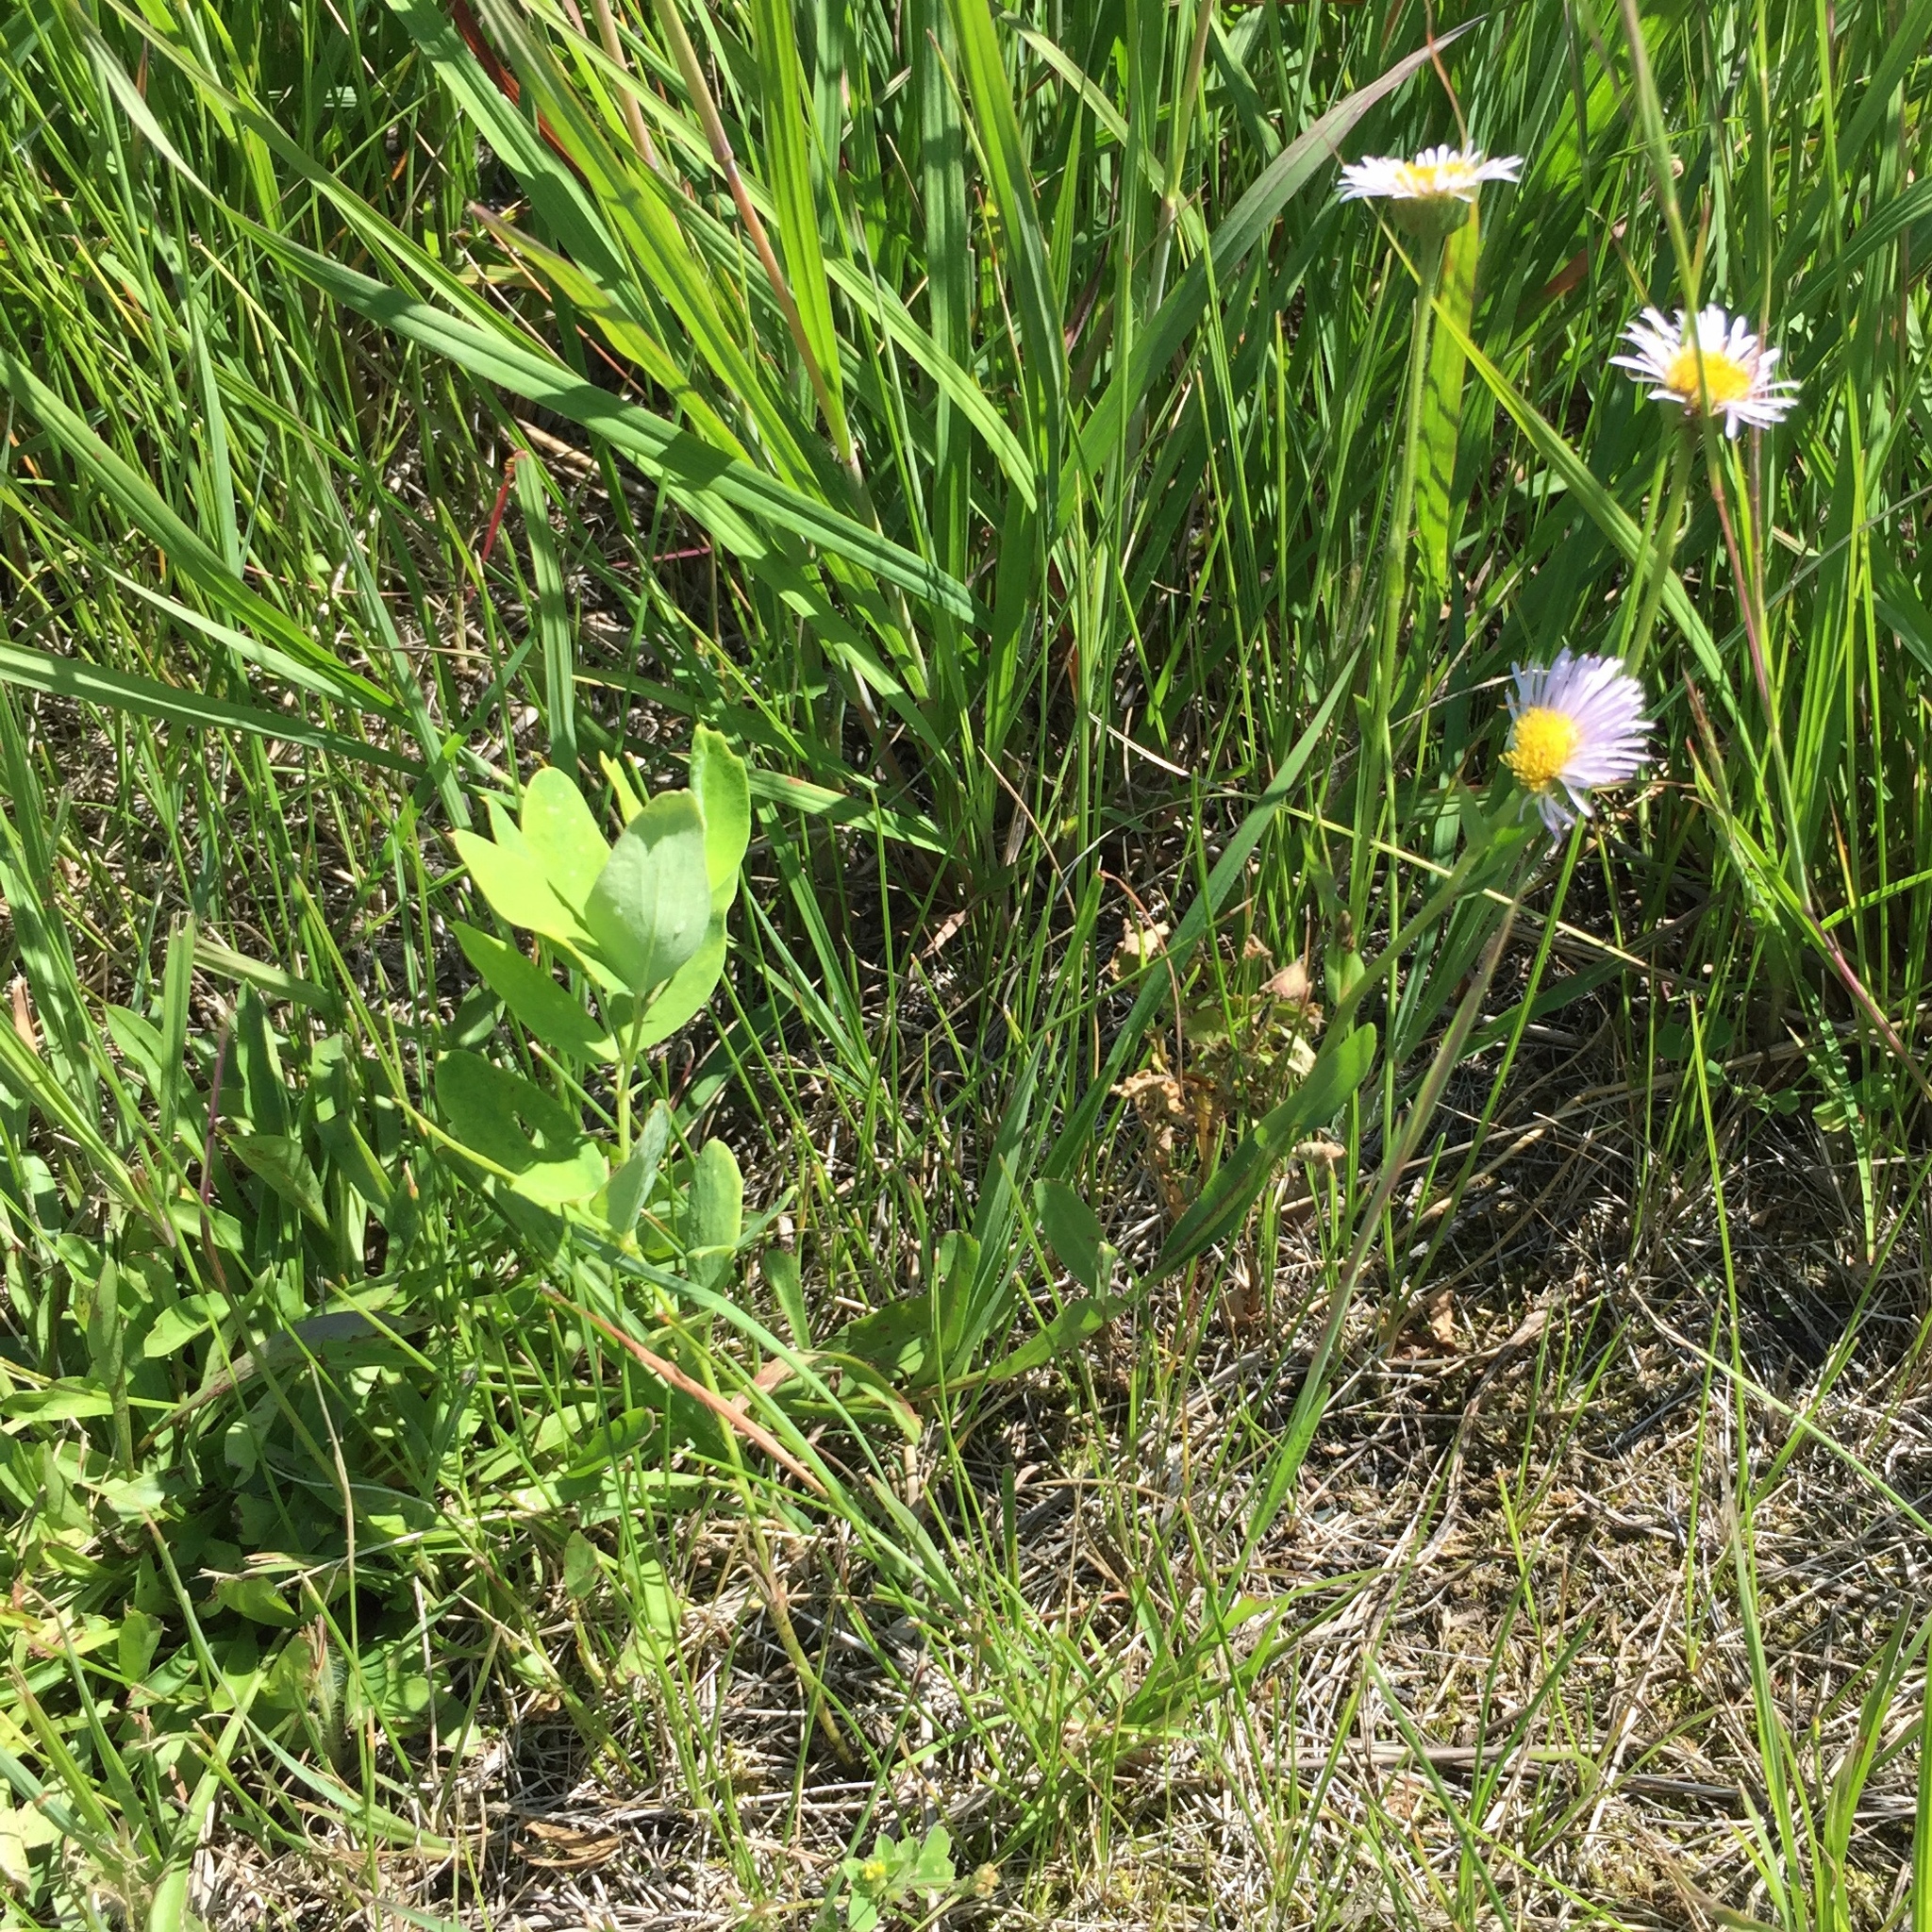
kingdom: Plantae
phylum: Tracheophyta
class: Magnoliopsida
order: Asterales
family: Asteraceae
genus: Erigeron
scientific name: Erigeron glabellus
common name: Smooth fleabane
